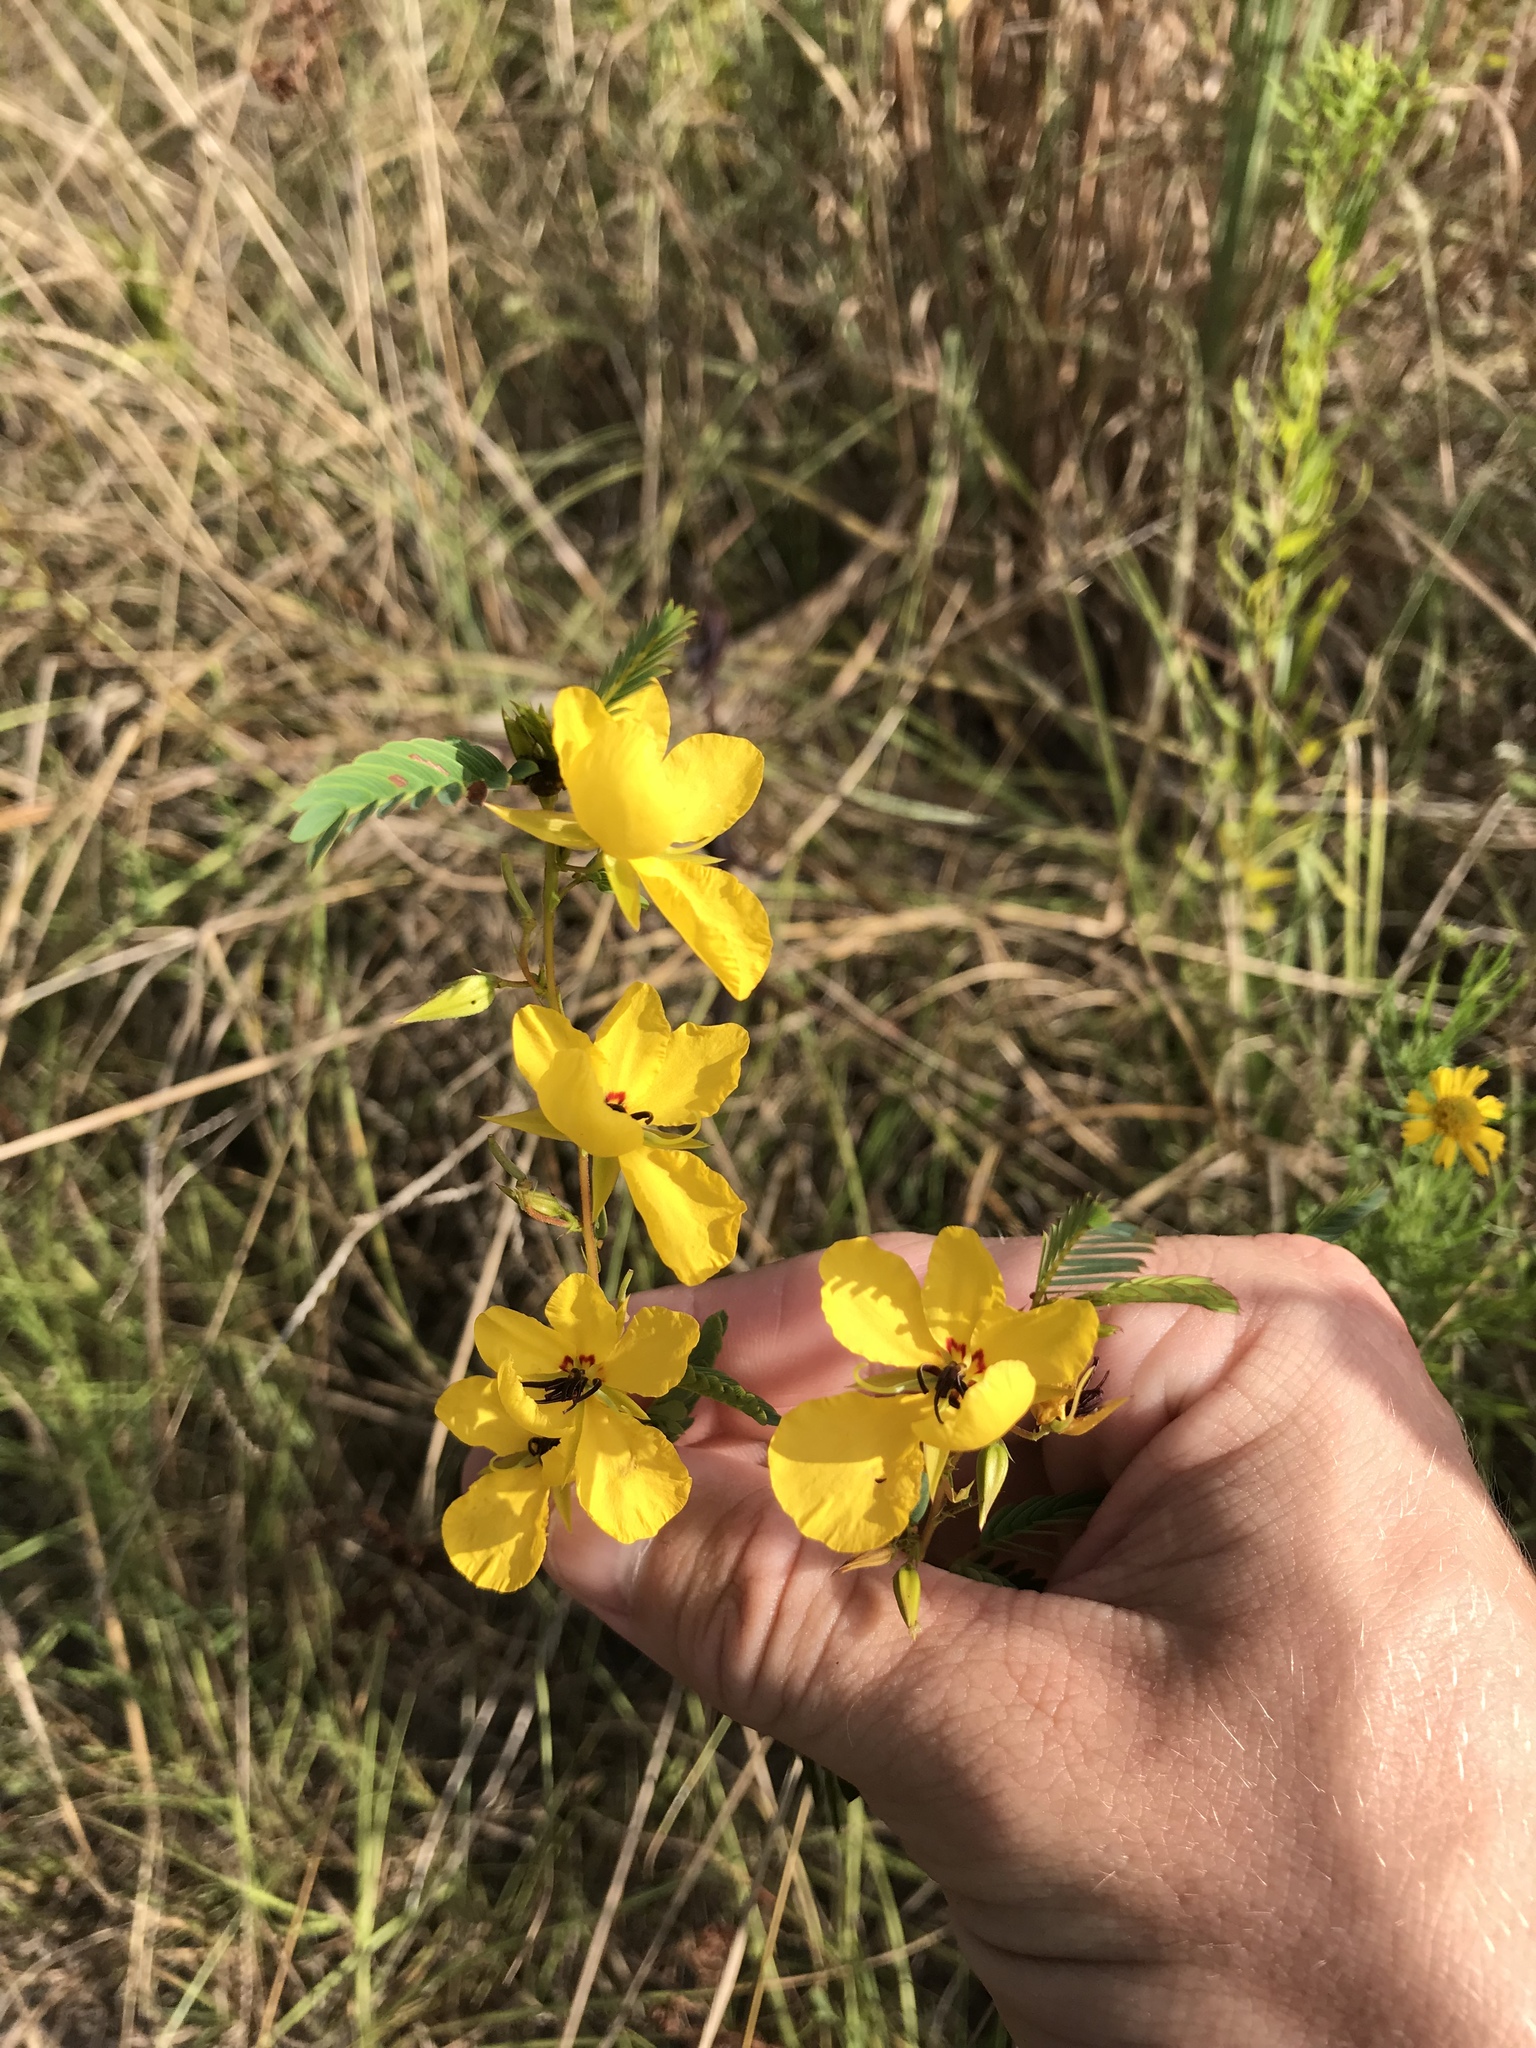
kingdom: Plantae
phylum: Tracheophyta
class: Magnoliopsida
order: Fabales
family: Fabaceae
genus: Chamaecrista
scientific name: Chamaecrista fasciculata
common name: Golden cassia
